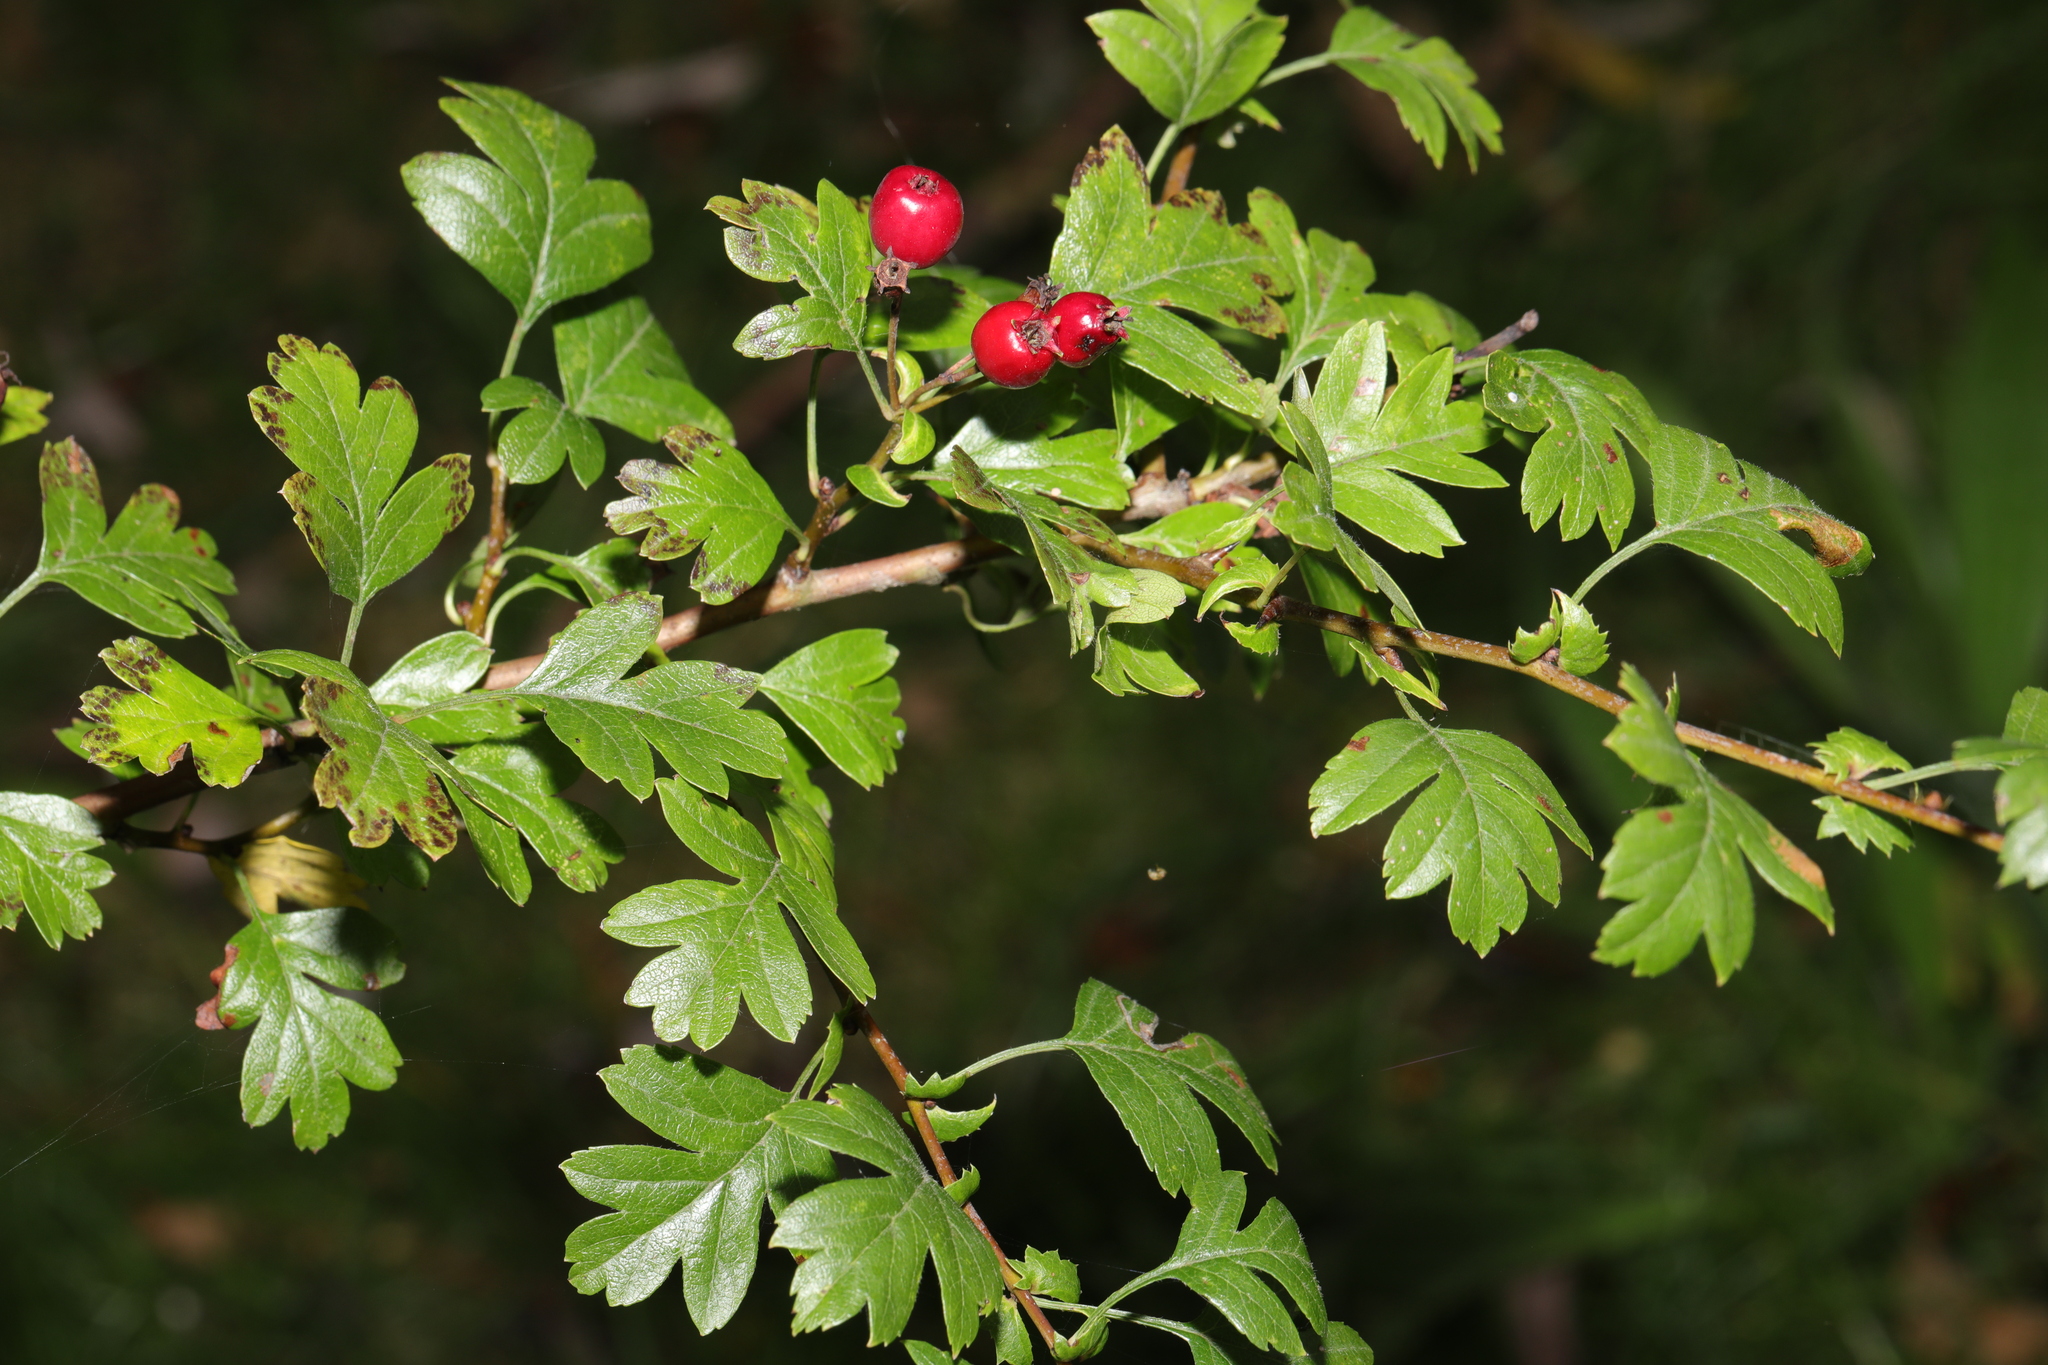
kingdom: Plantae
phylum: Tracheophyta
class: Magnoliopsida
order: Rosales
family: Rosaceae
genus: Crataegus
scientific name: Crataegus monogyna
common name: Hawthorn
